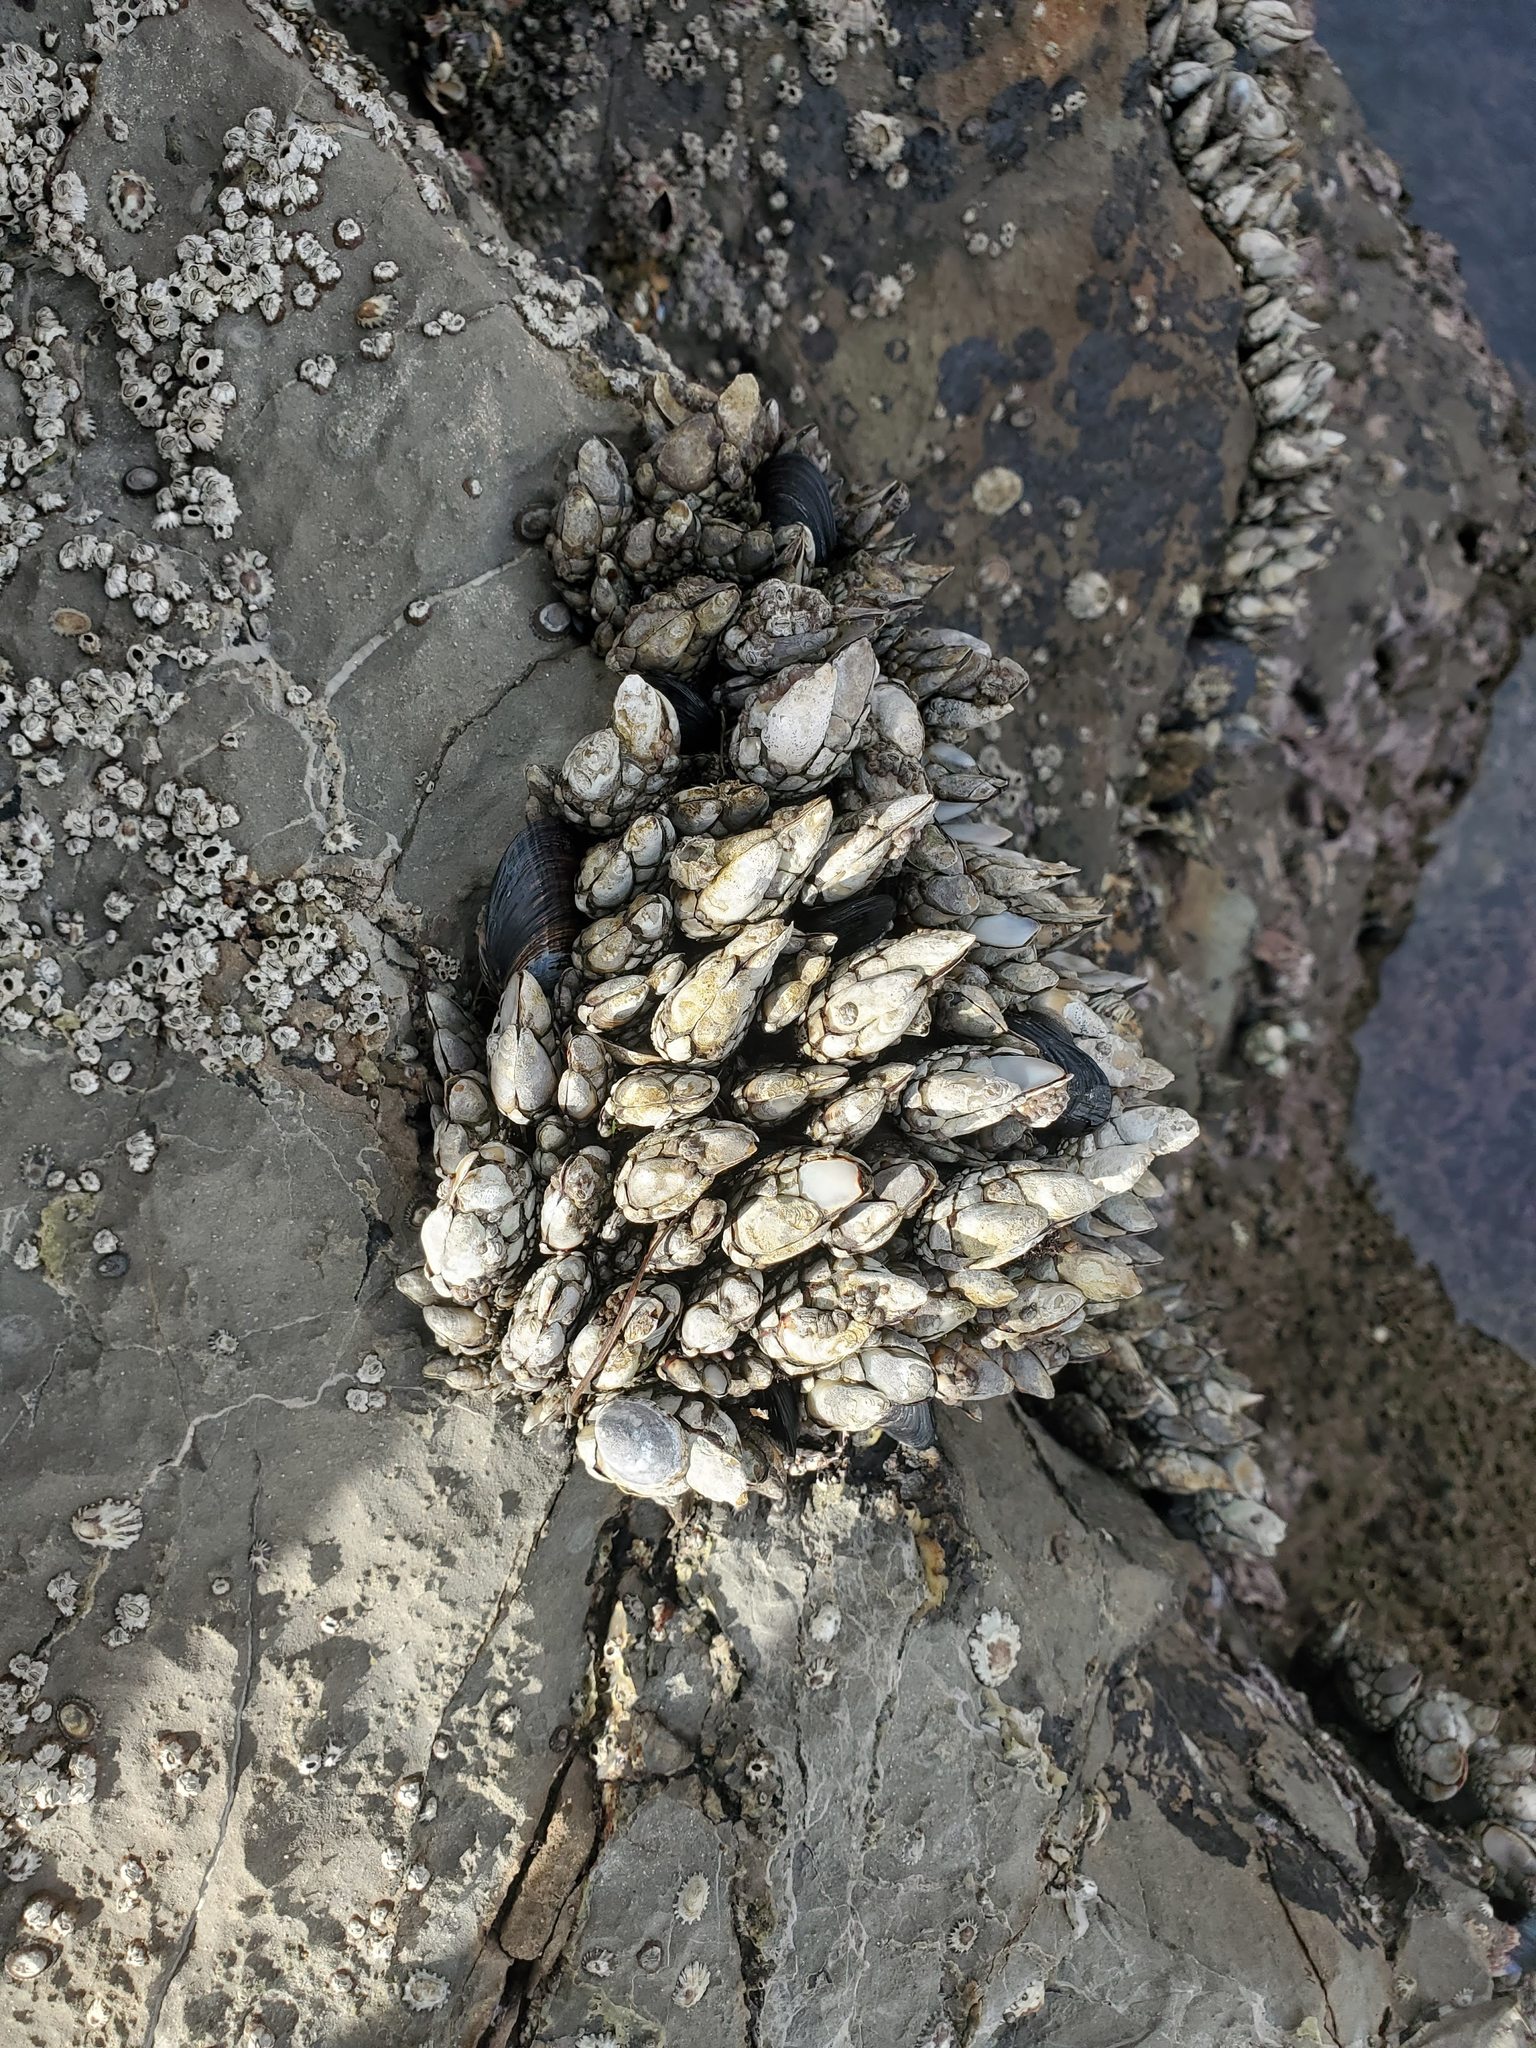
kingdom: Animalia
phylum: Arthropoda
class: Maxillopoda
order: Pedunculata
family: Pollicipedidae
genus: Pollicipes
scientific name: Pollicipes polymerus
